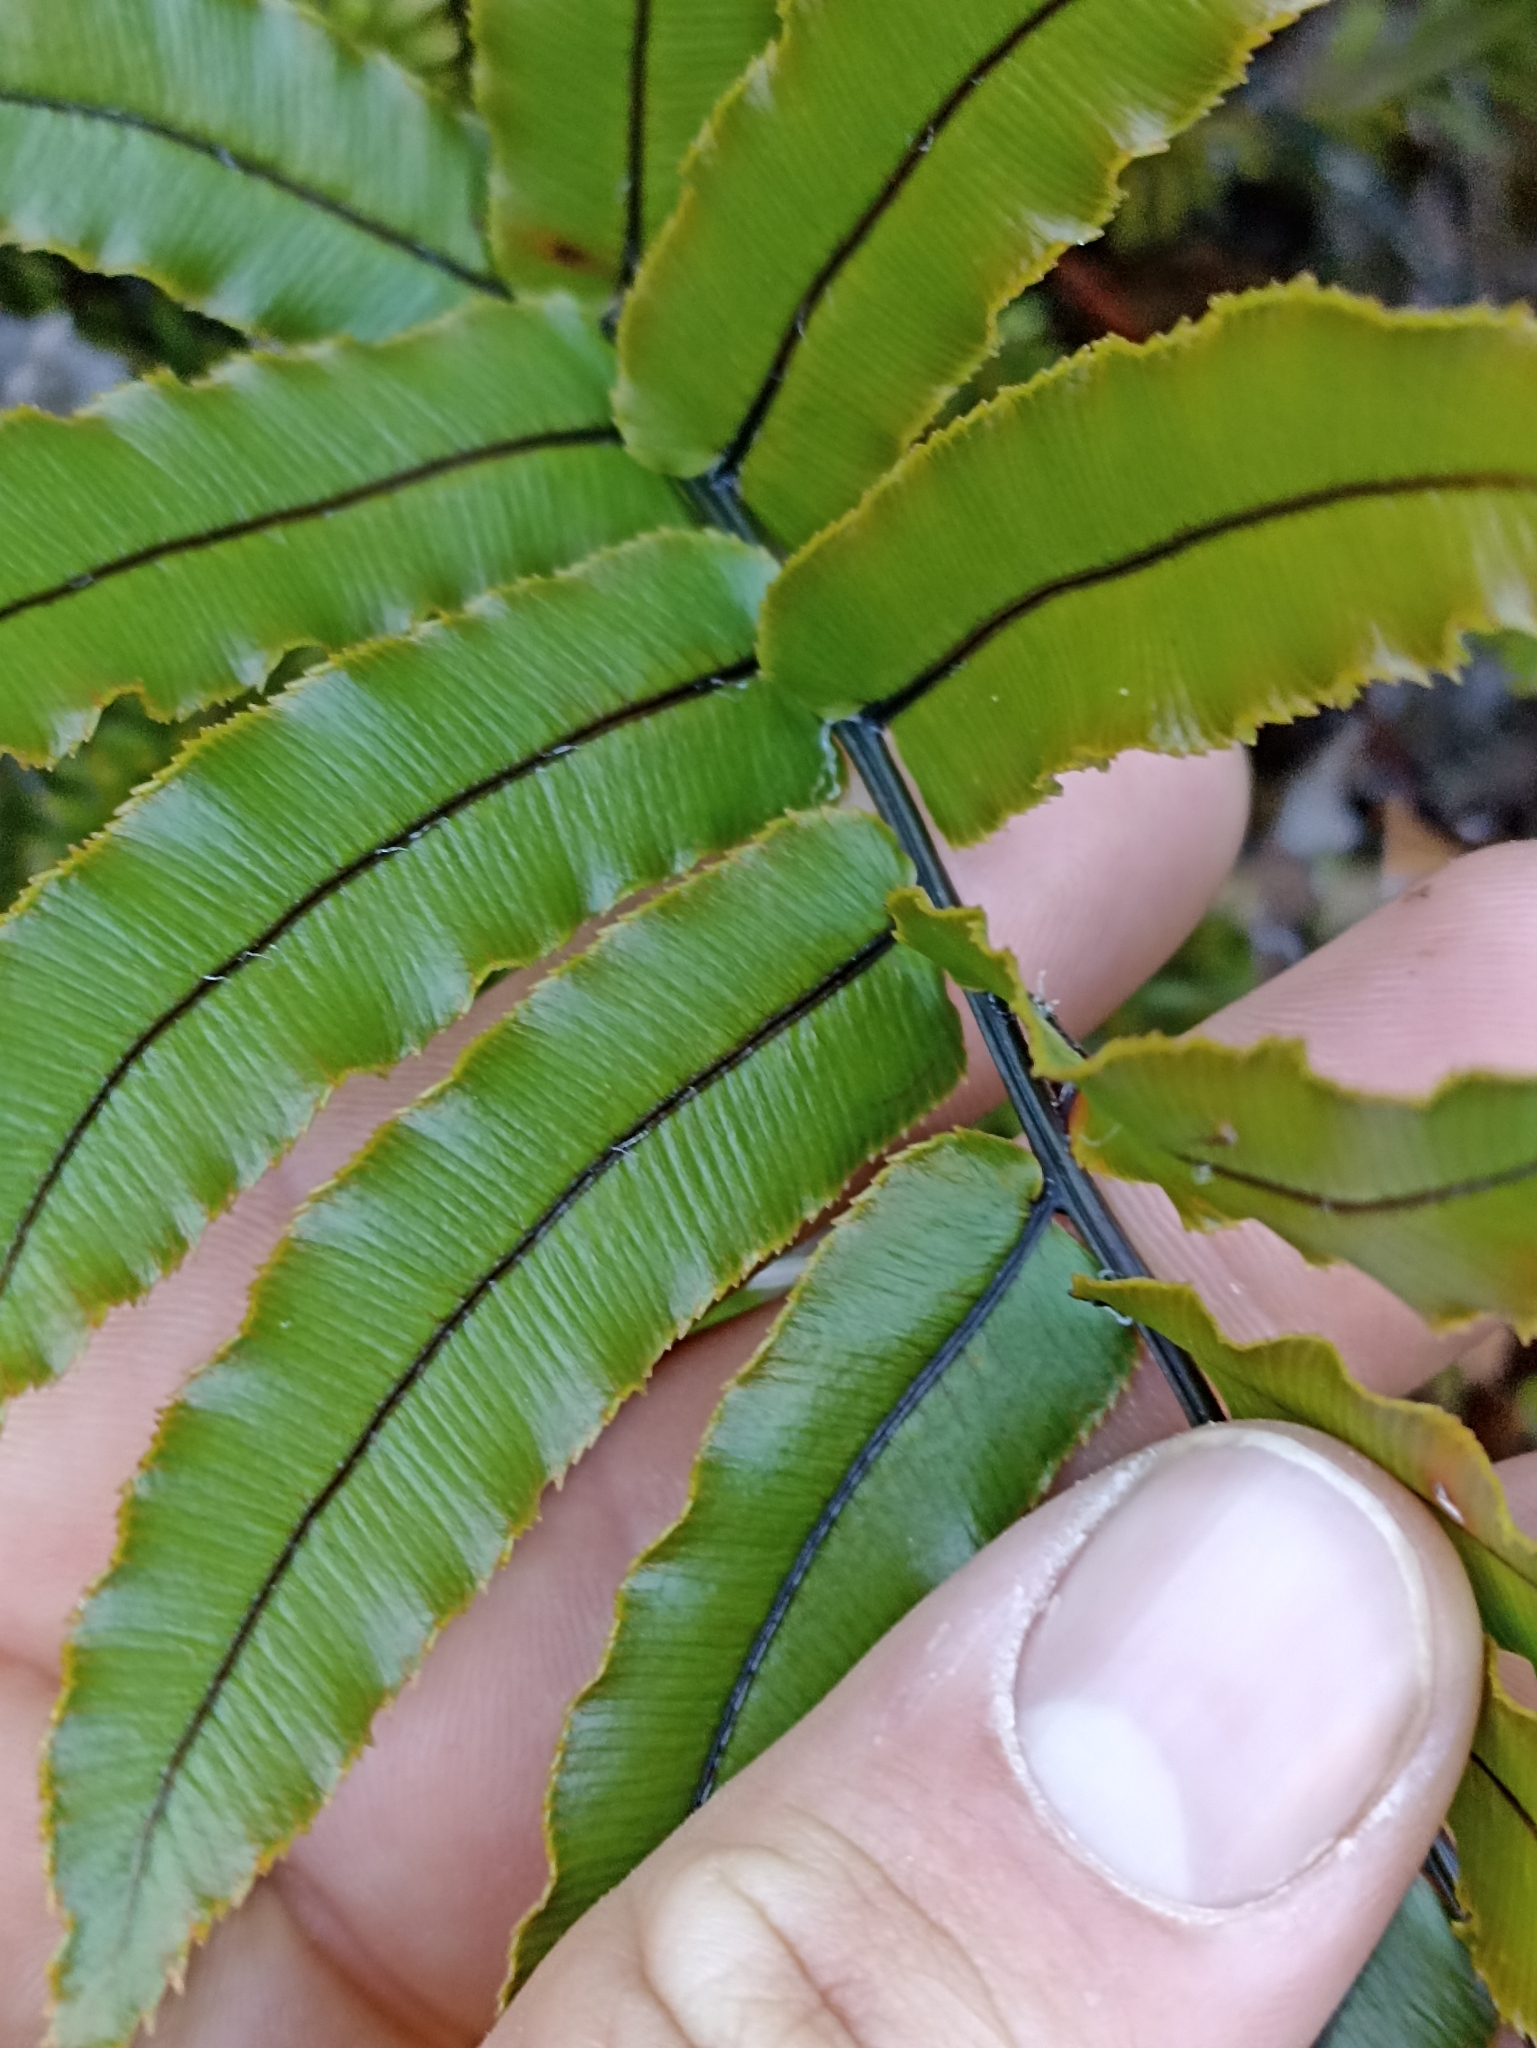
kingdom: Plantae
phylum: Tracheophyta
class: Polypodiopsida
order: Polypodiales
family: Blechnaceae
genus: Parablechnum
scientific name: Parablechnum montanum
